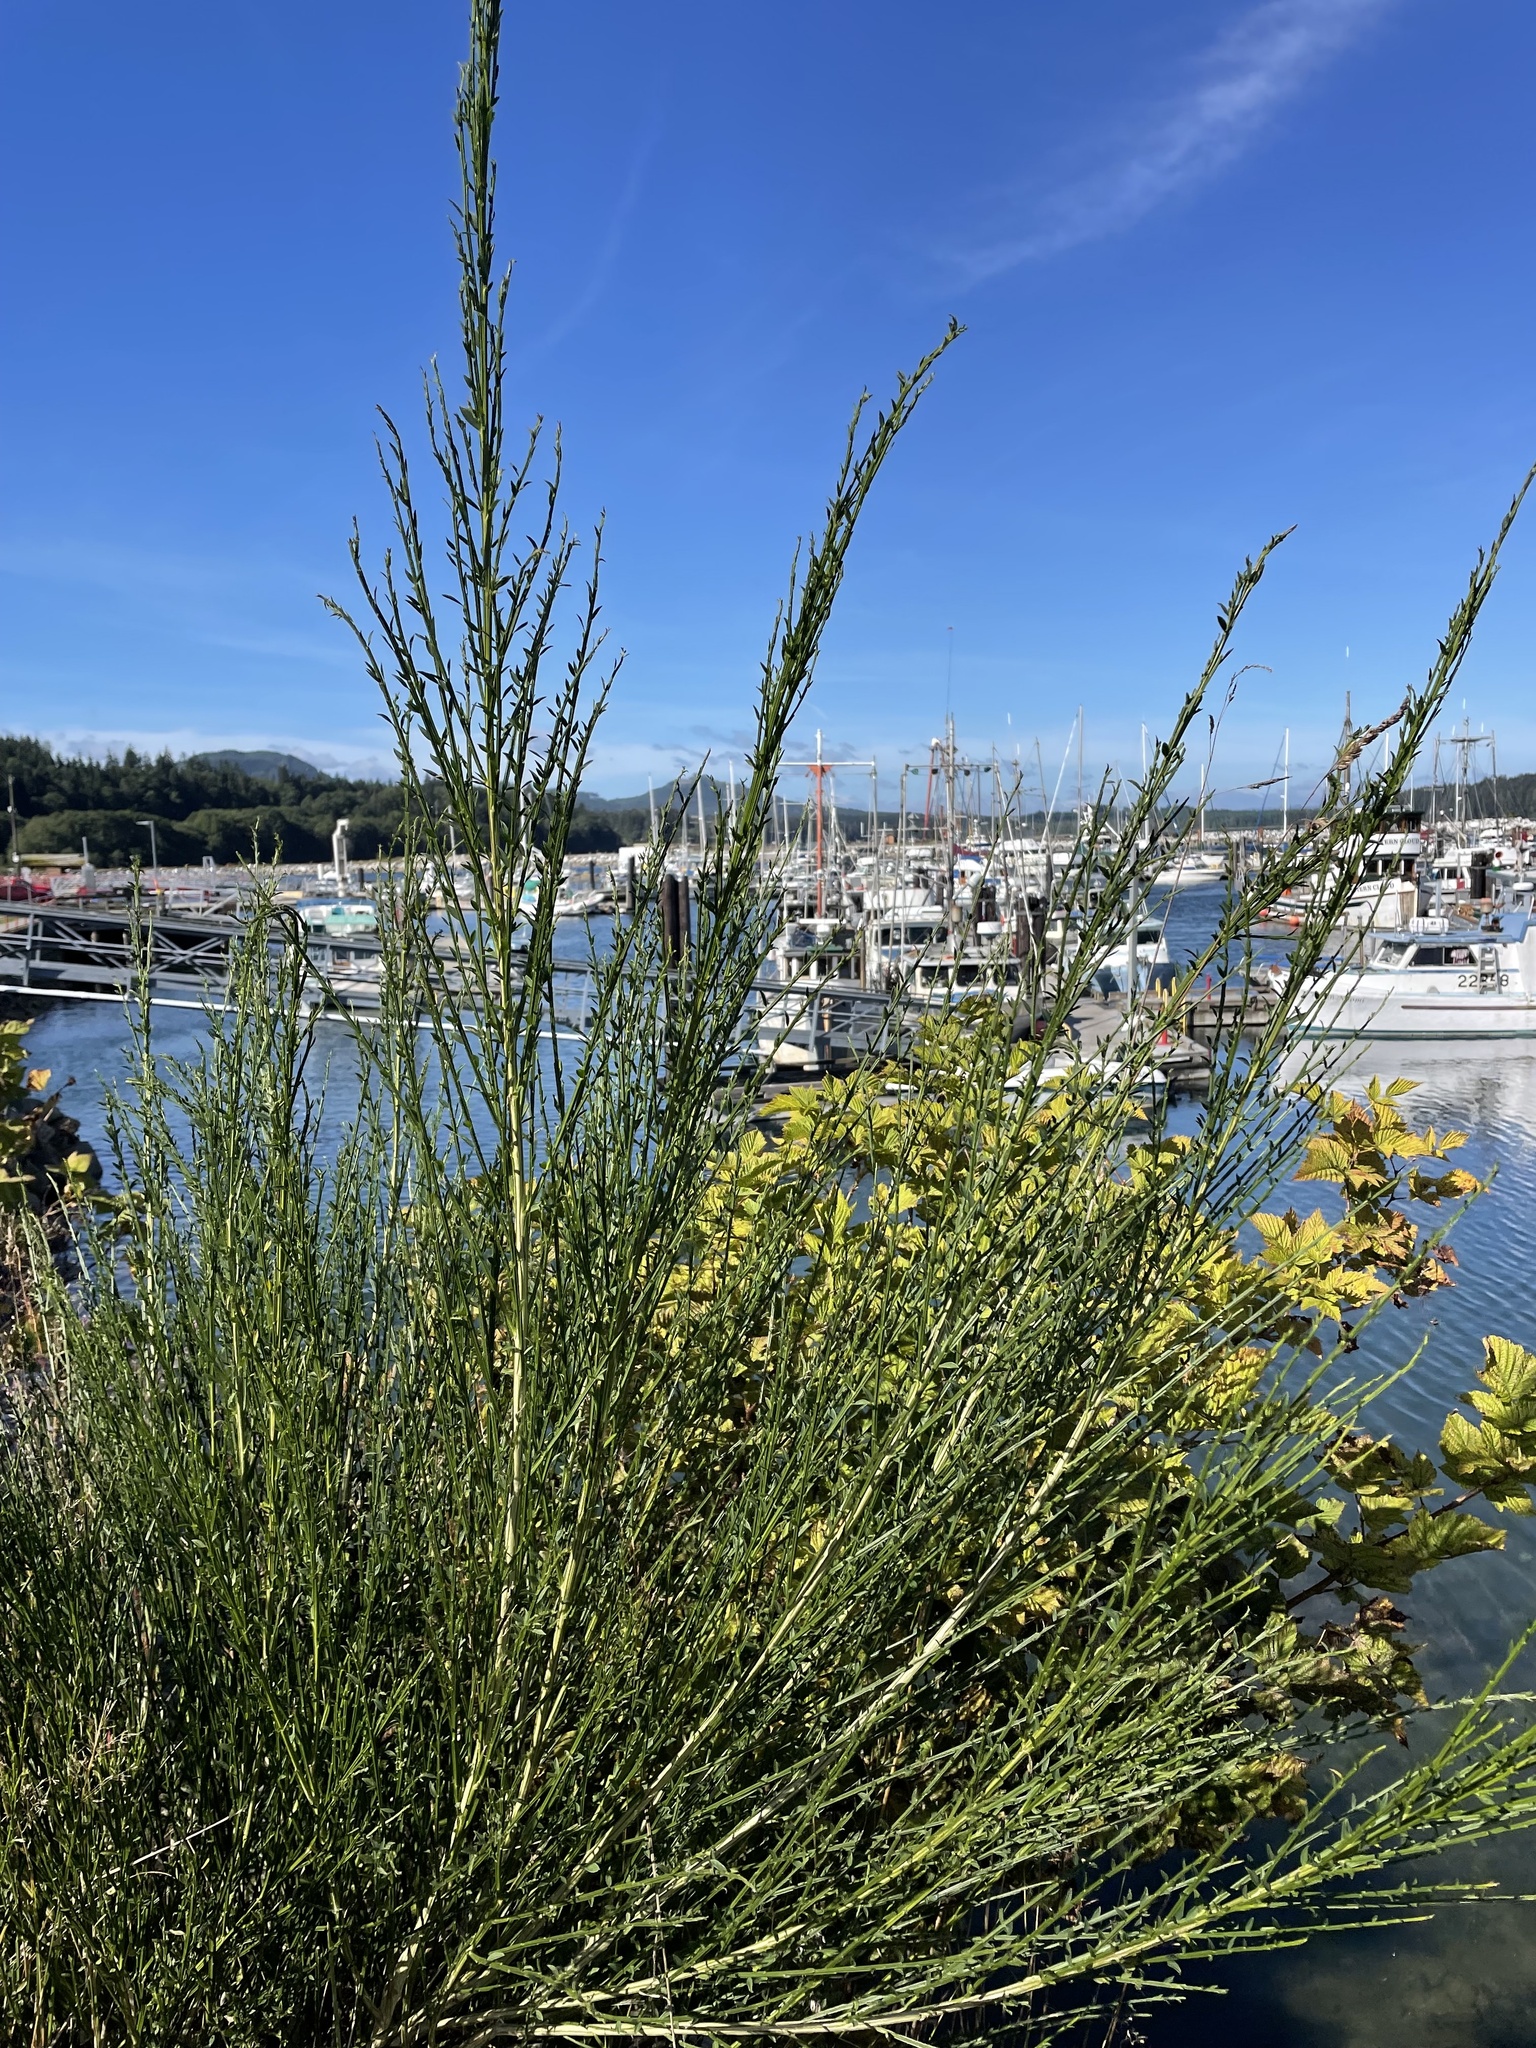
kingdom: Plantae
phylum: Tracheophyta
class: Magnoliopsida
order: Fabales
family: Fabaceae
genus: Cytisus
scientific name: Cytisus scoparius
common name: Scotch broom
